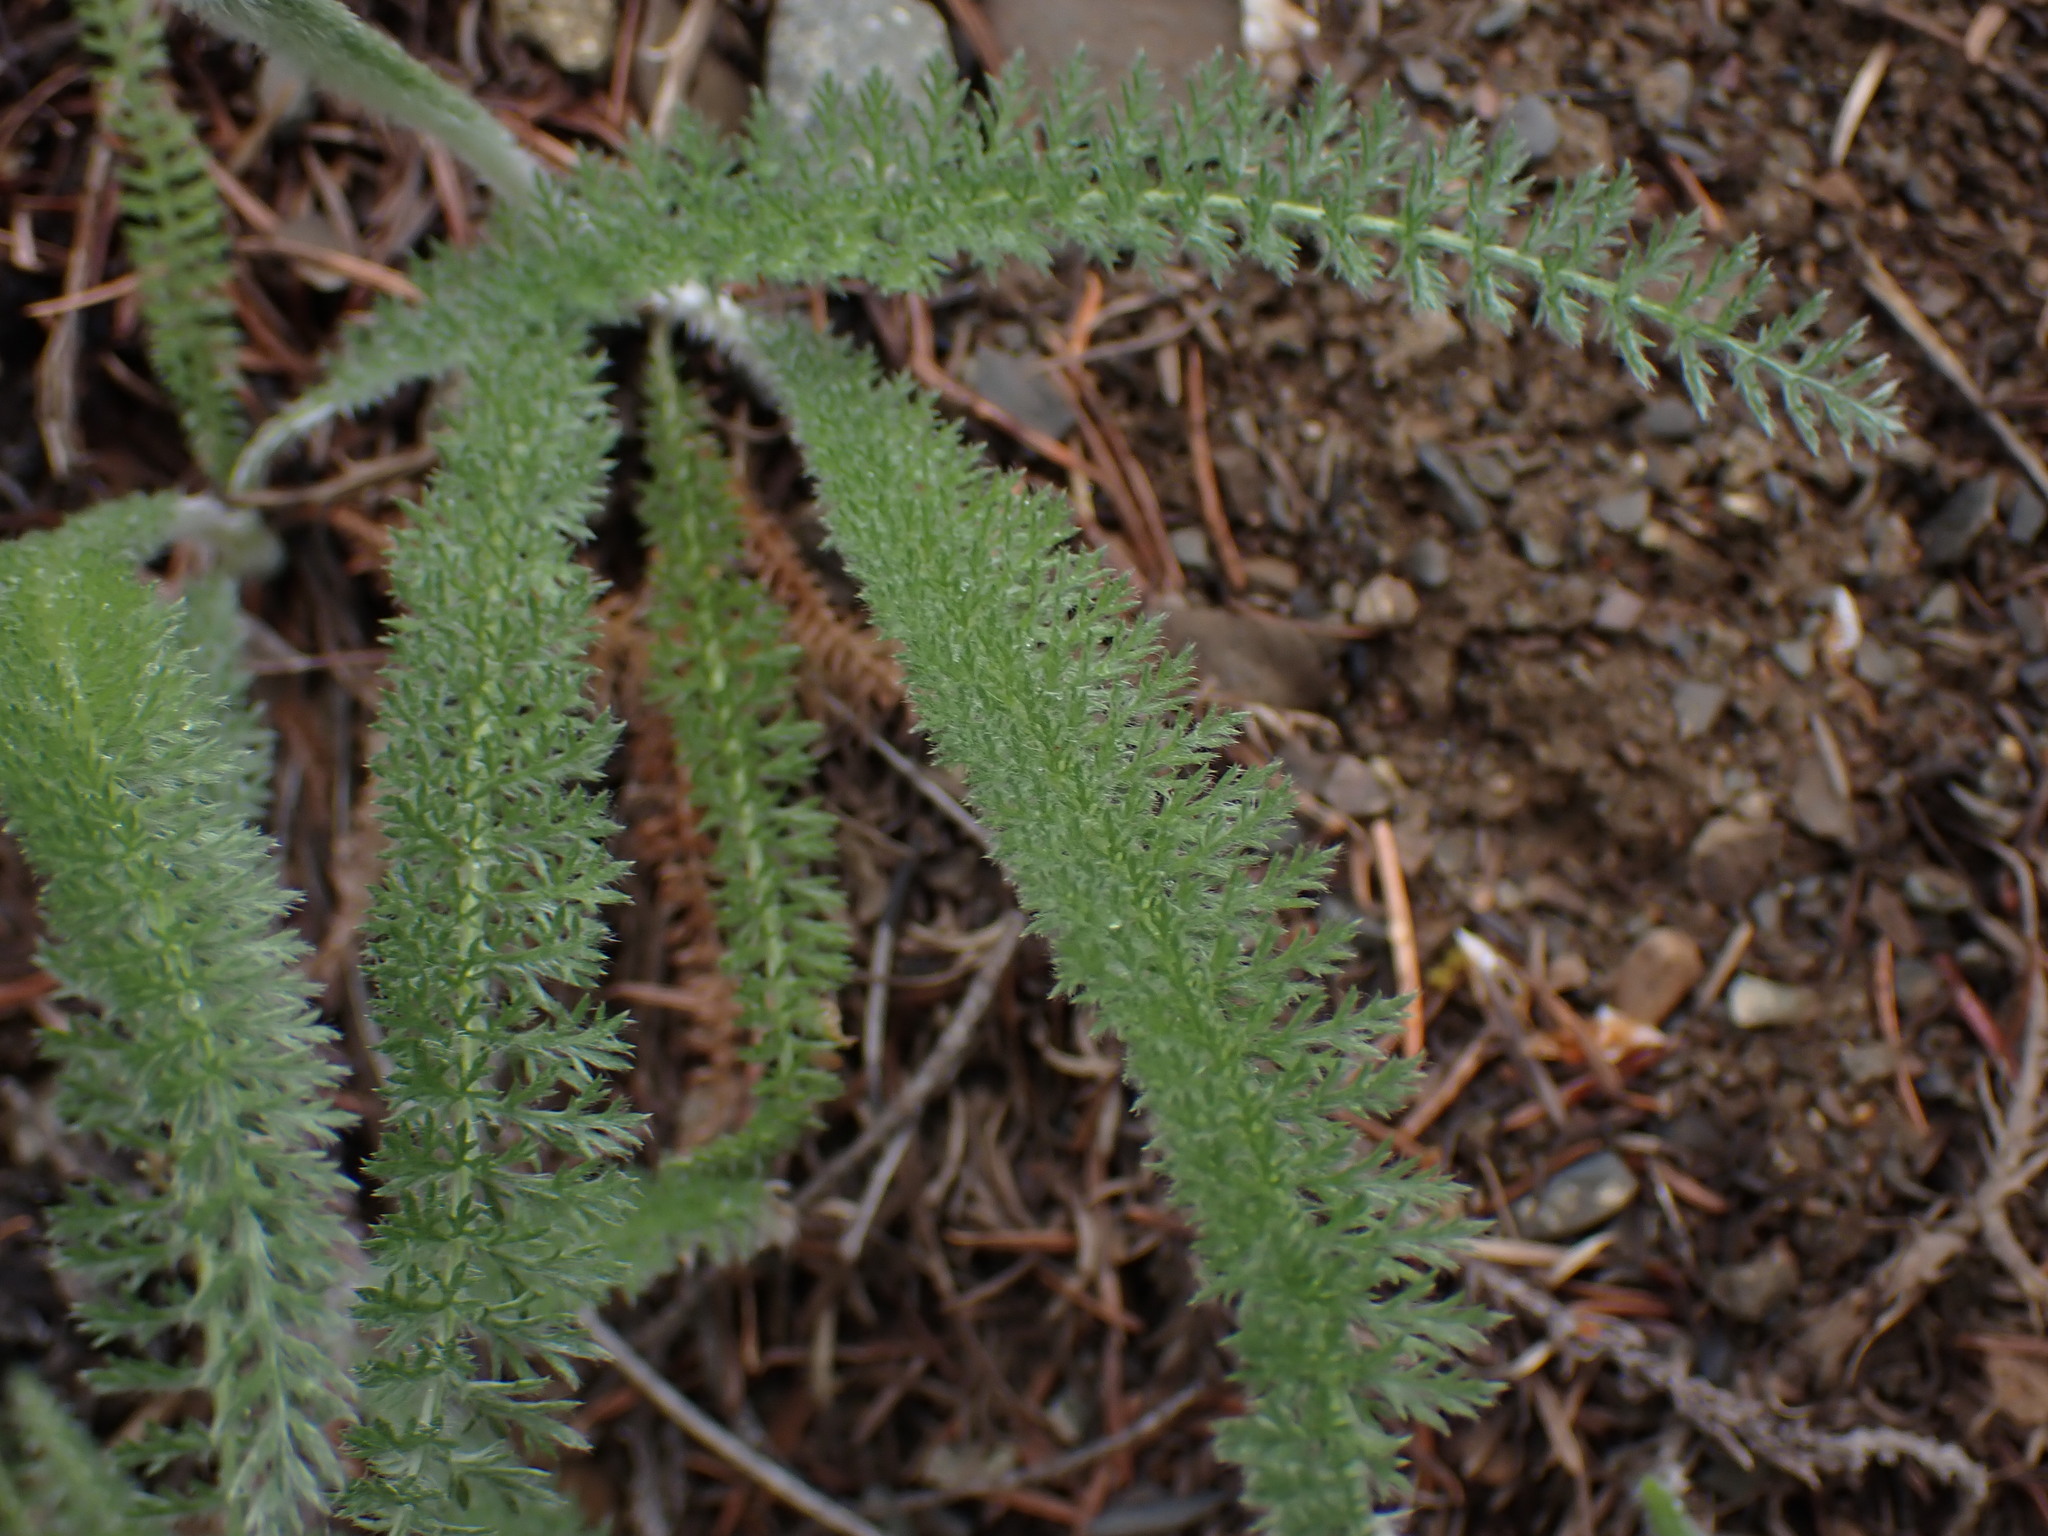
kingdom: Plantae
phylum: Tracheophyta
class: Magnoliopsida
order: Asterales
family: Asteraceae
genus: Achillea
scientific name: Achillea millefolium
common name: Yarrow
